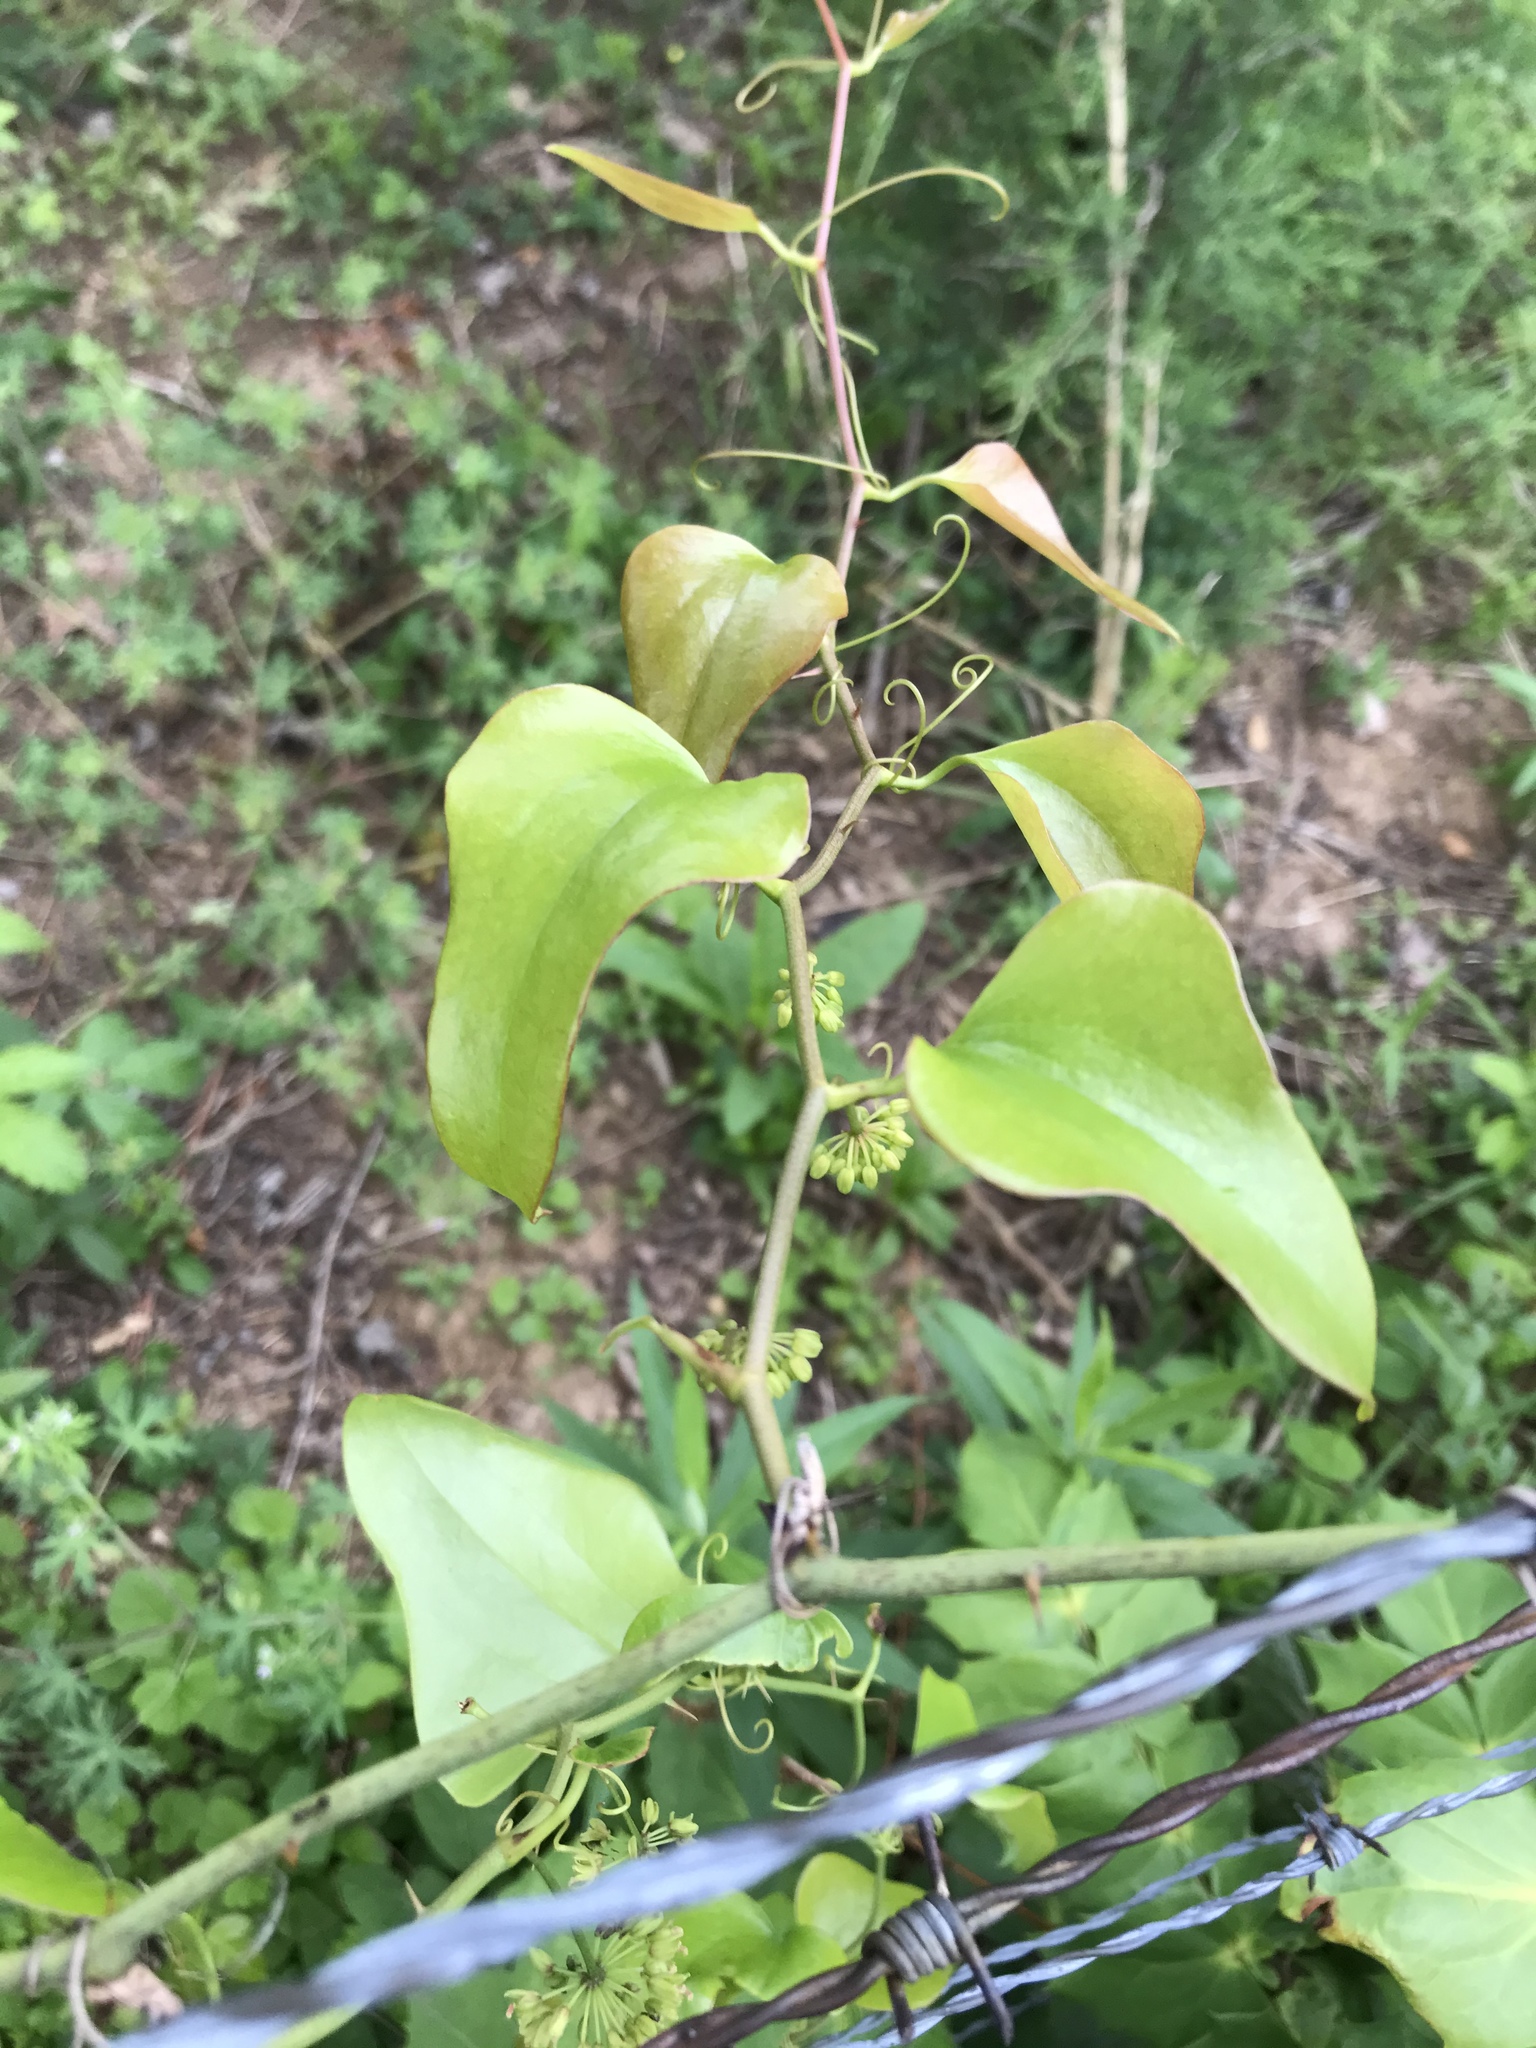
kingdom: Plantae
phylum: Tracheophyta
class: Liliopsida
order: Liliales
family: Smilacaceae
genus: Smilax
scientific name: Smilax bona-nox
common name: Catbrier
